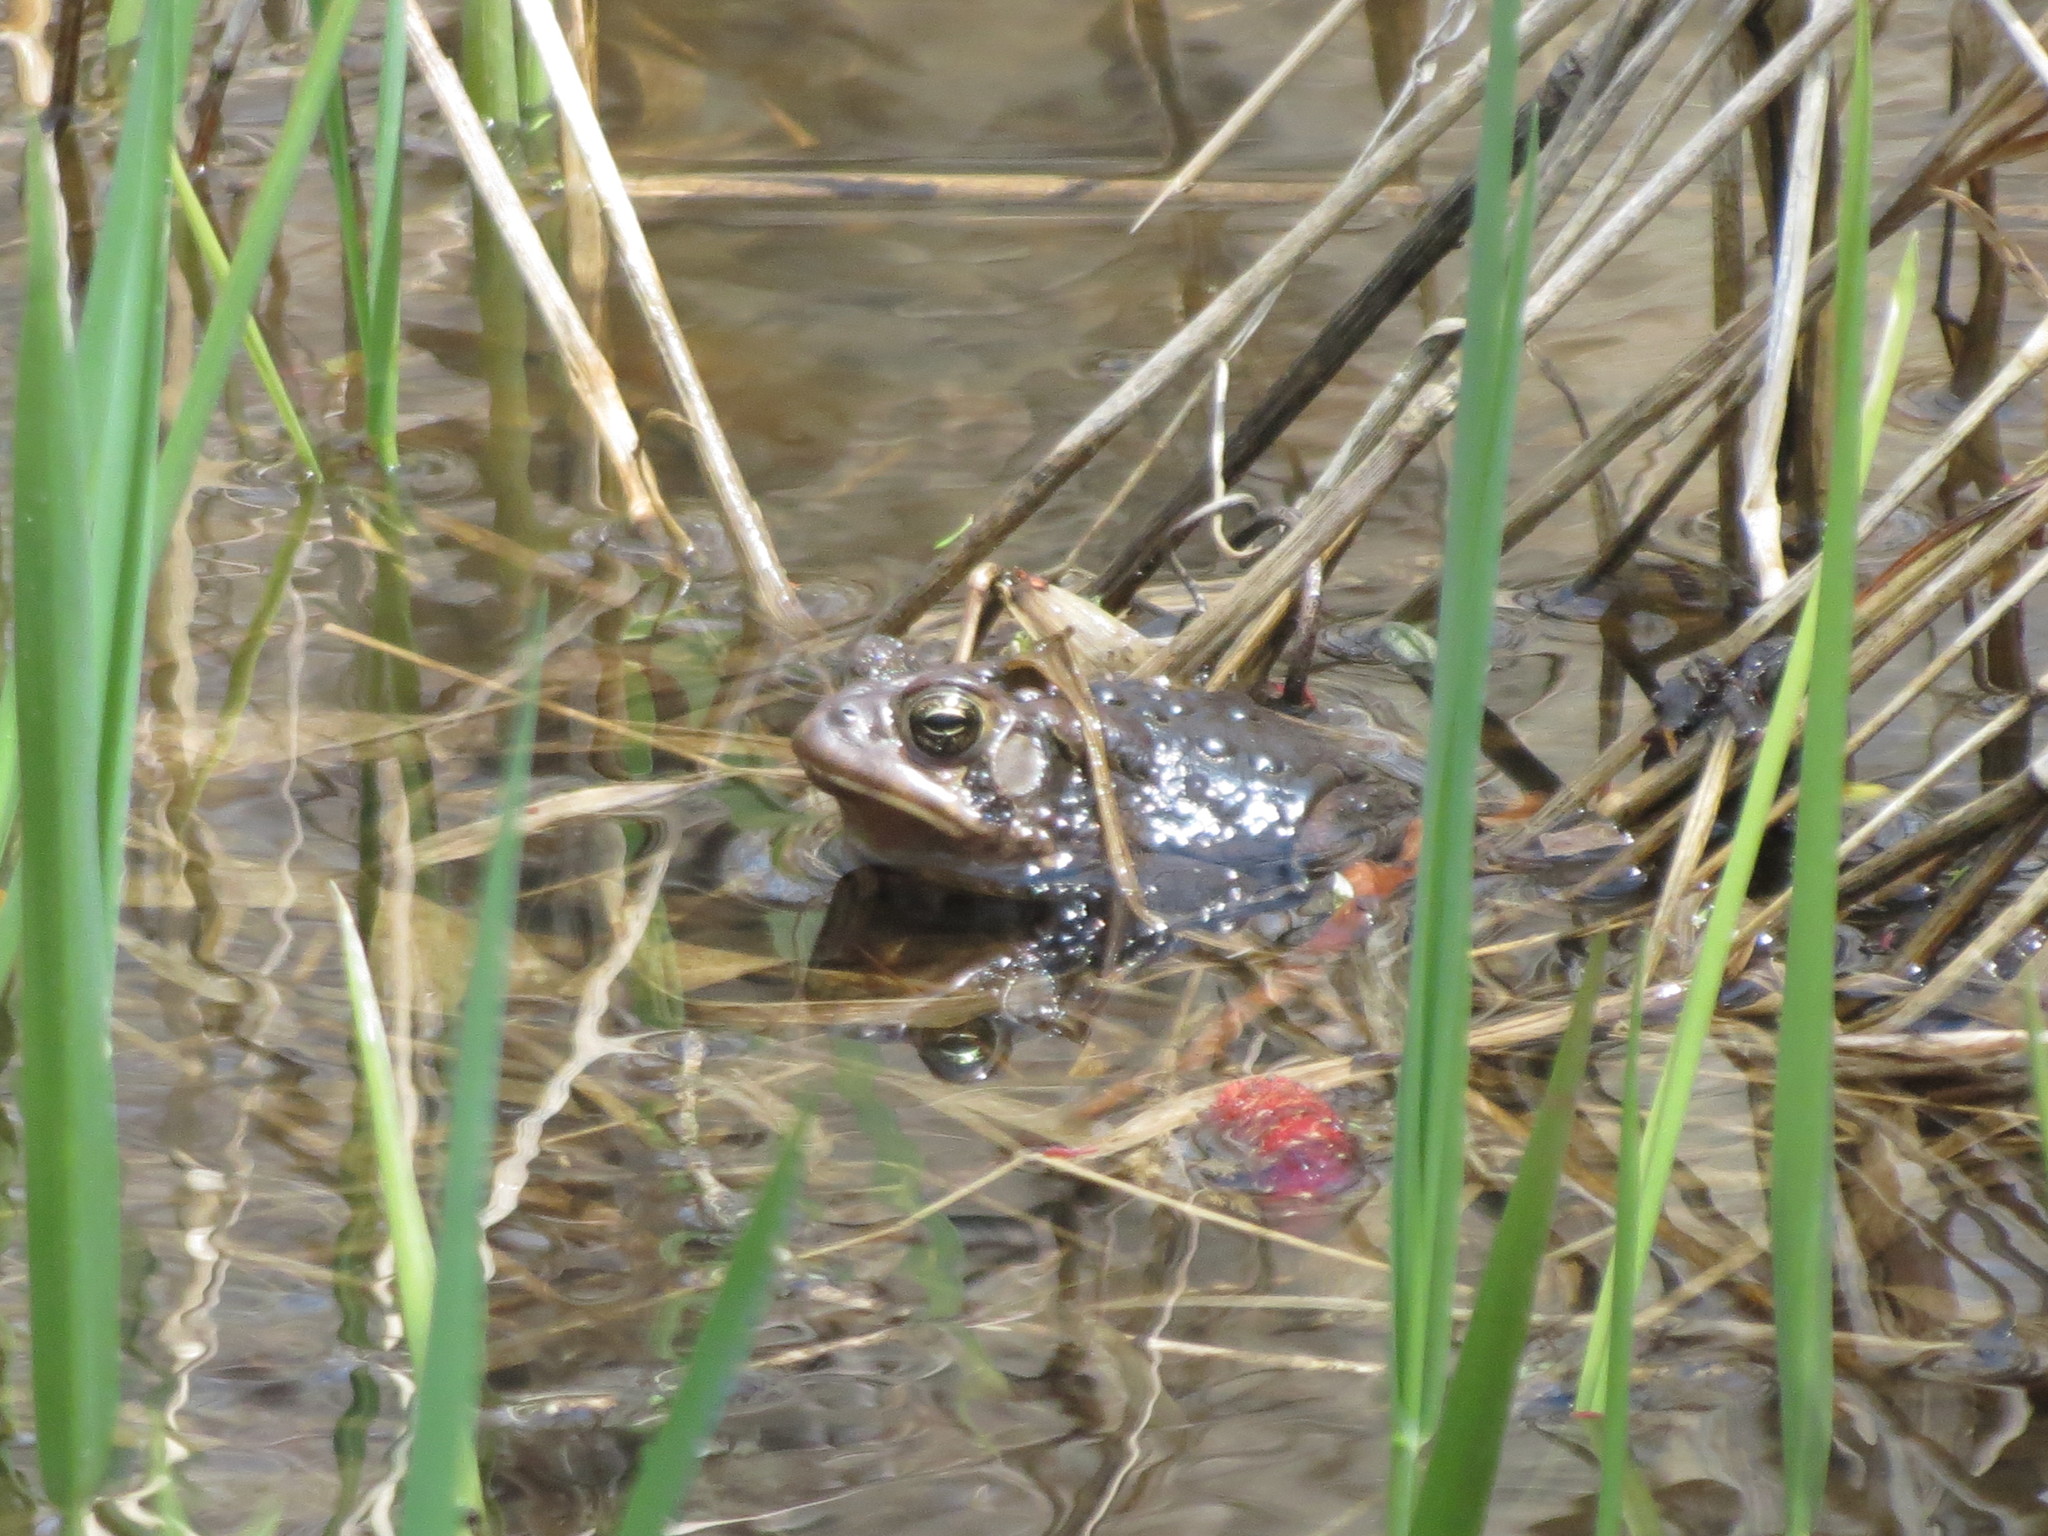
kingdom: Animalia
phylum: Chordata
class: Amphibia
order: Anura
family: Bufonidae
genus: Anaxyrus
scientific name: Anaxyrus americanus
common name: American toad
